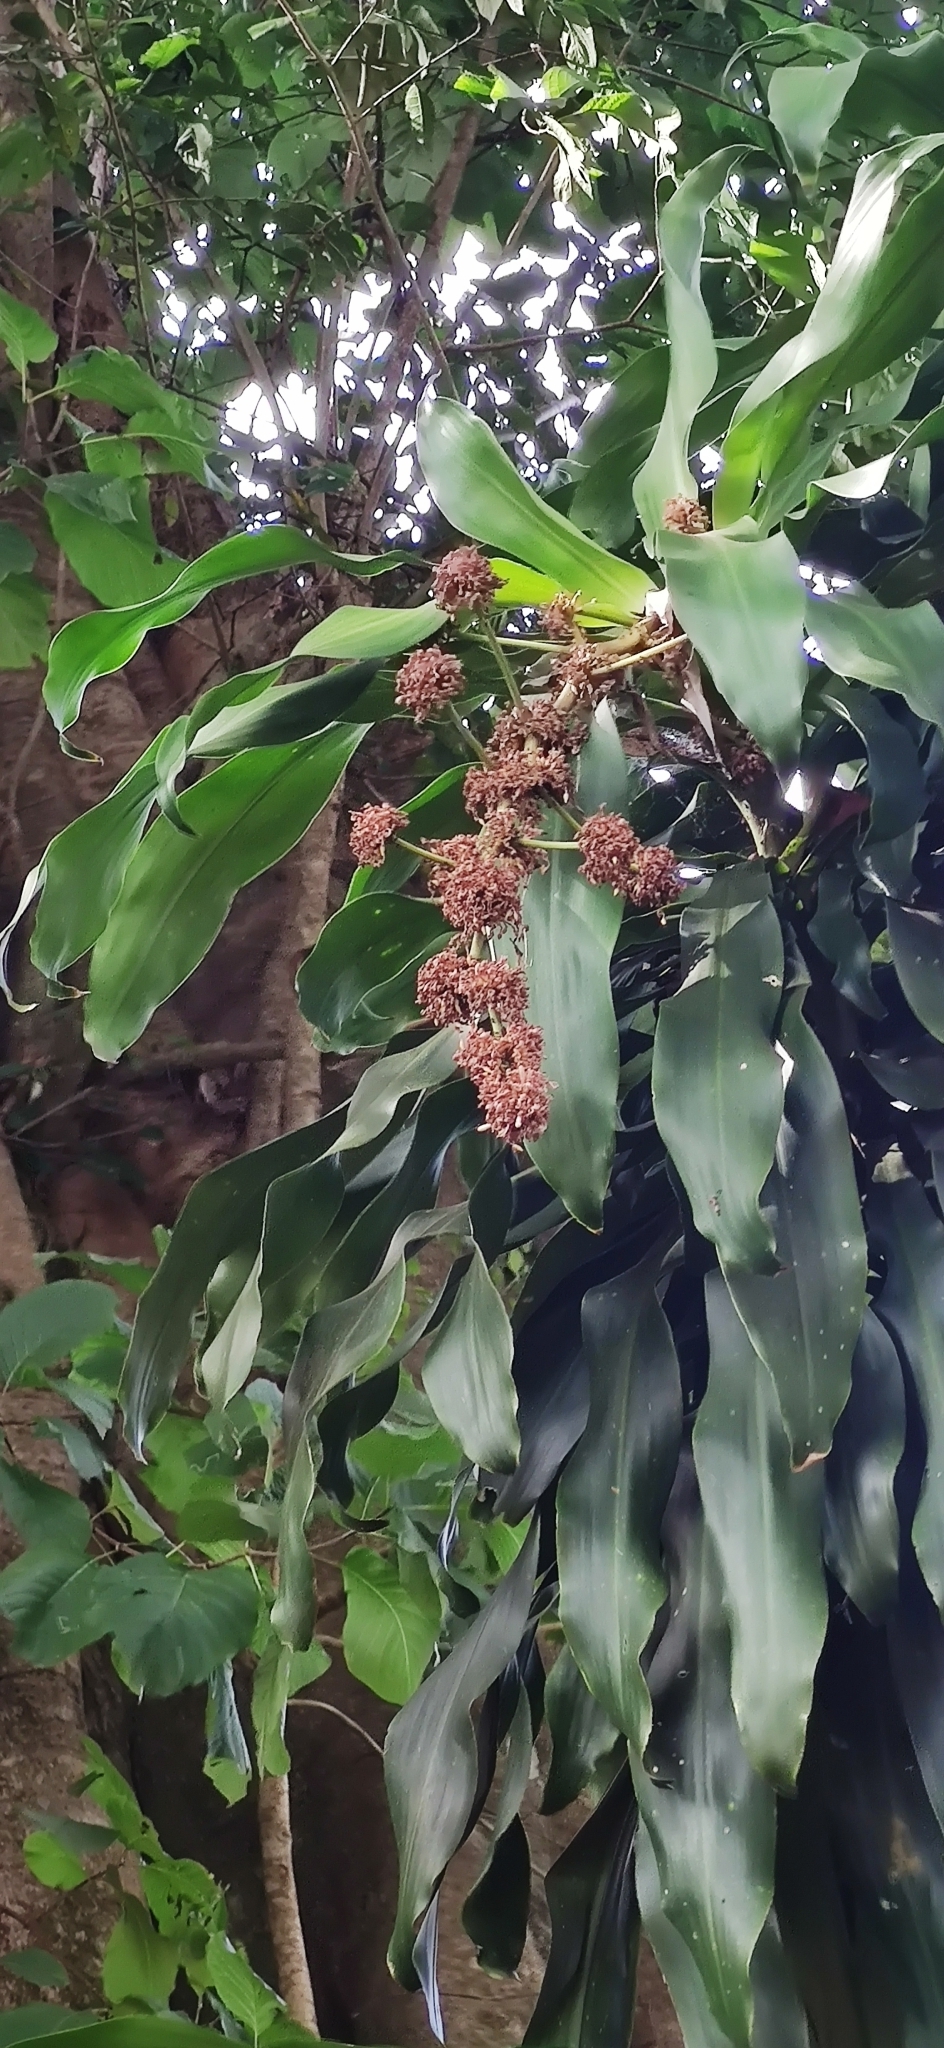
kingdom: Plantae
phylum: Tracheophyta
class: Liliopsida
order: Asparagales
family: Asparagaceae
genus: Dracaena
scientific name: Dracaena fragrans
